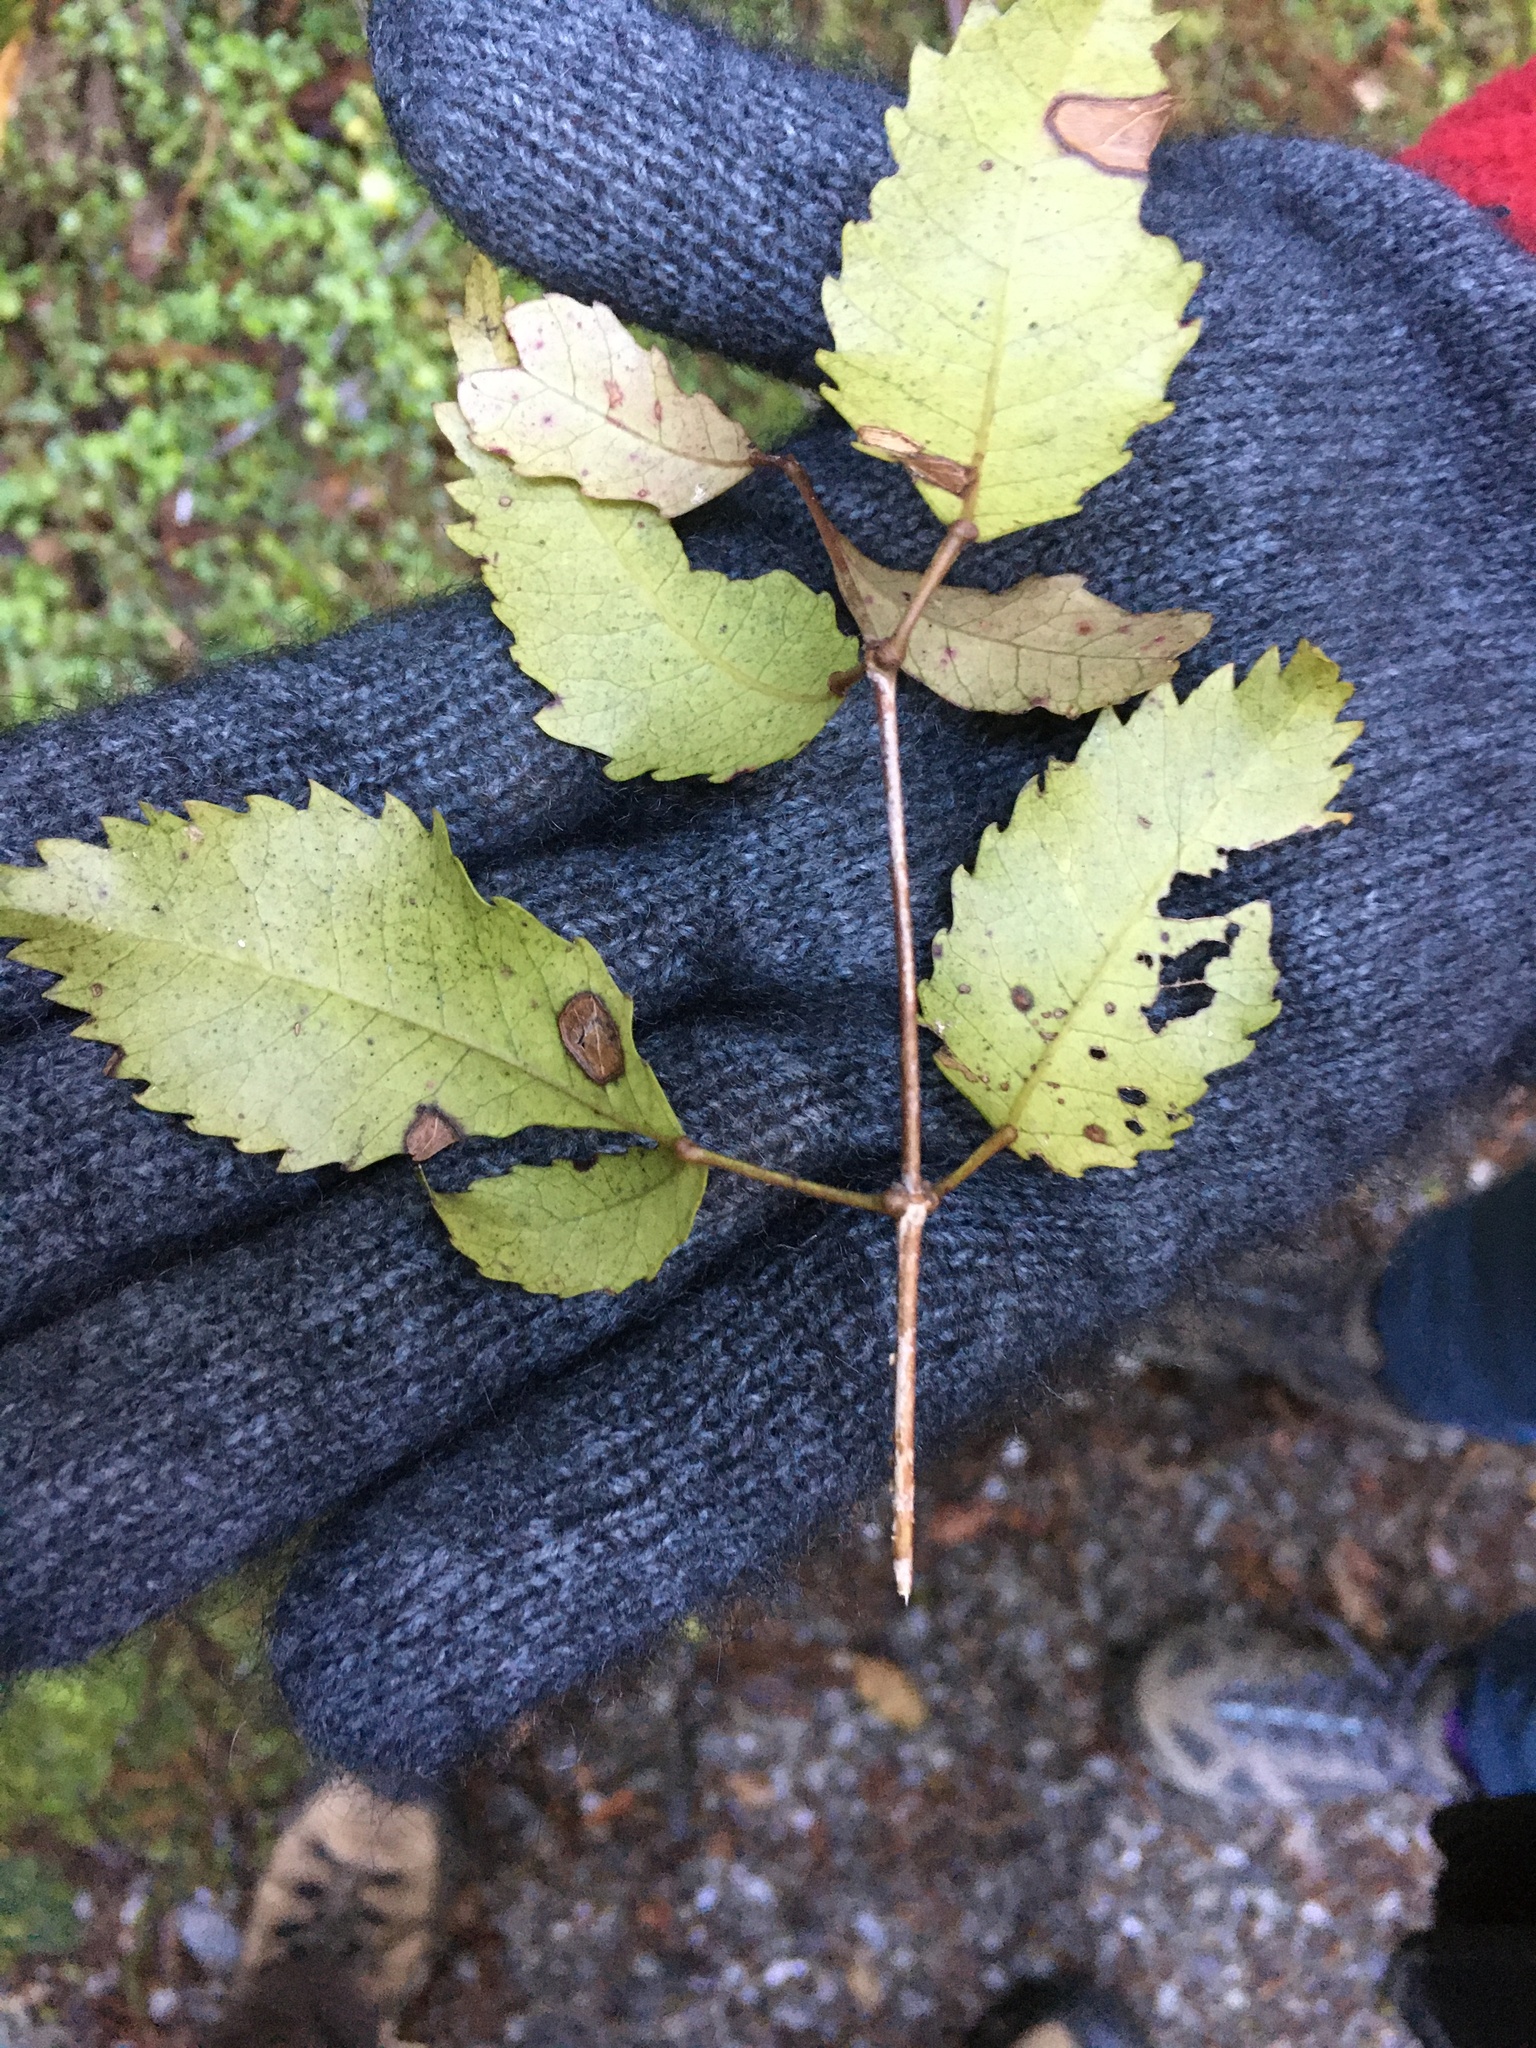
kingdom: Plantae
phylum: Tracheophyta
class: Magnoliopsida
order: Fagales
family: Nothofagaceae
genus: Nothofagus
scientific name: Nothofagus fusca
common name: Red beech
